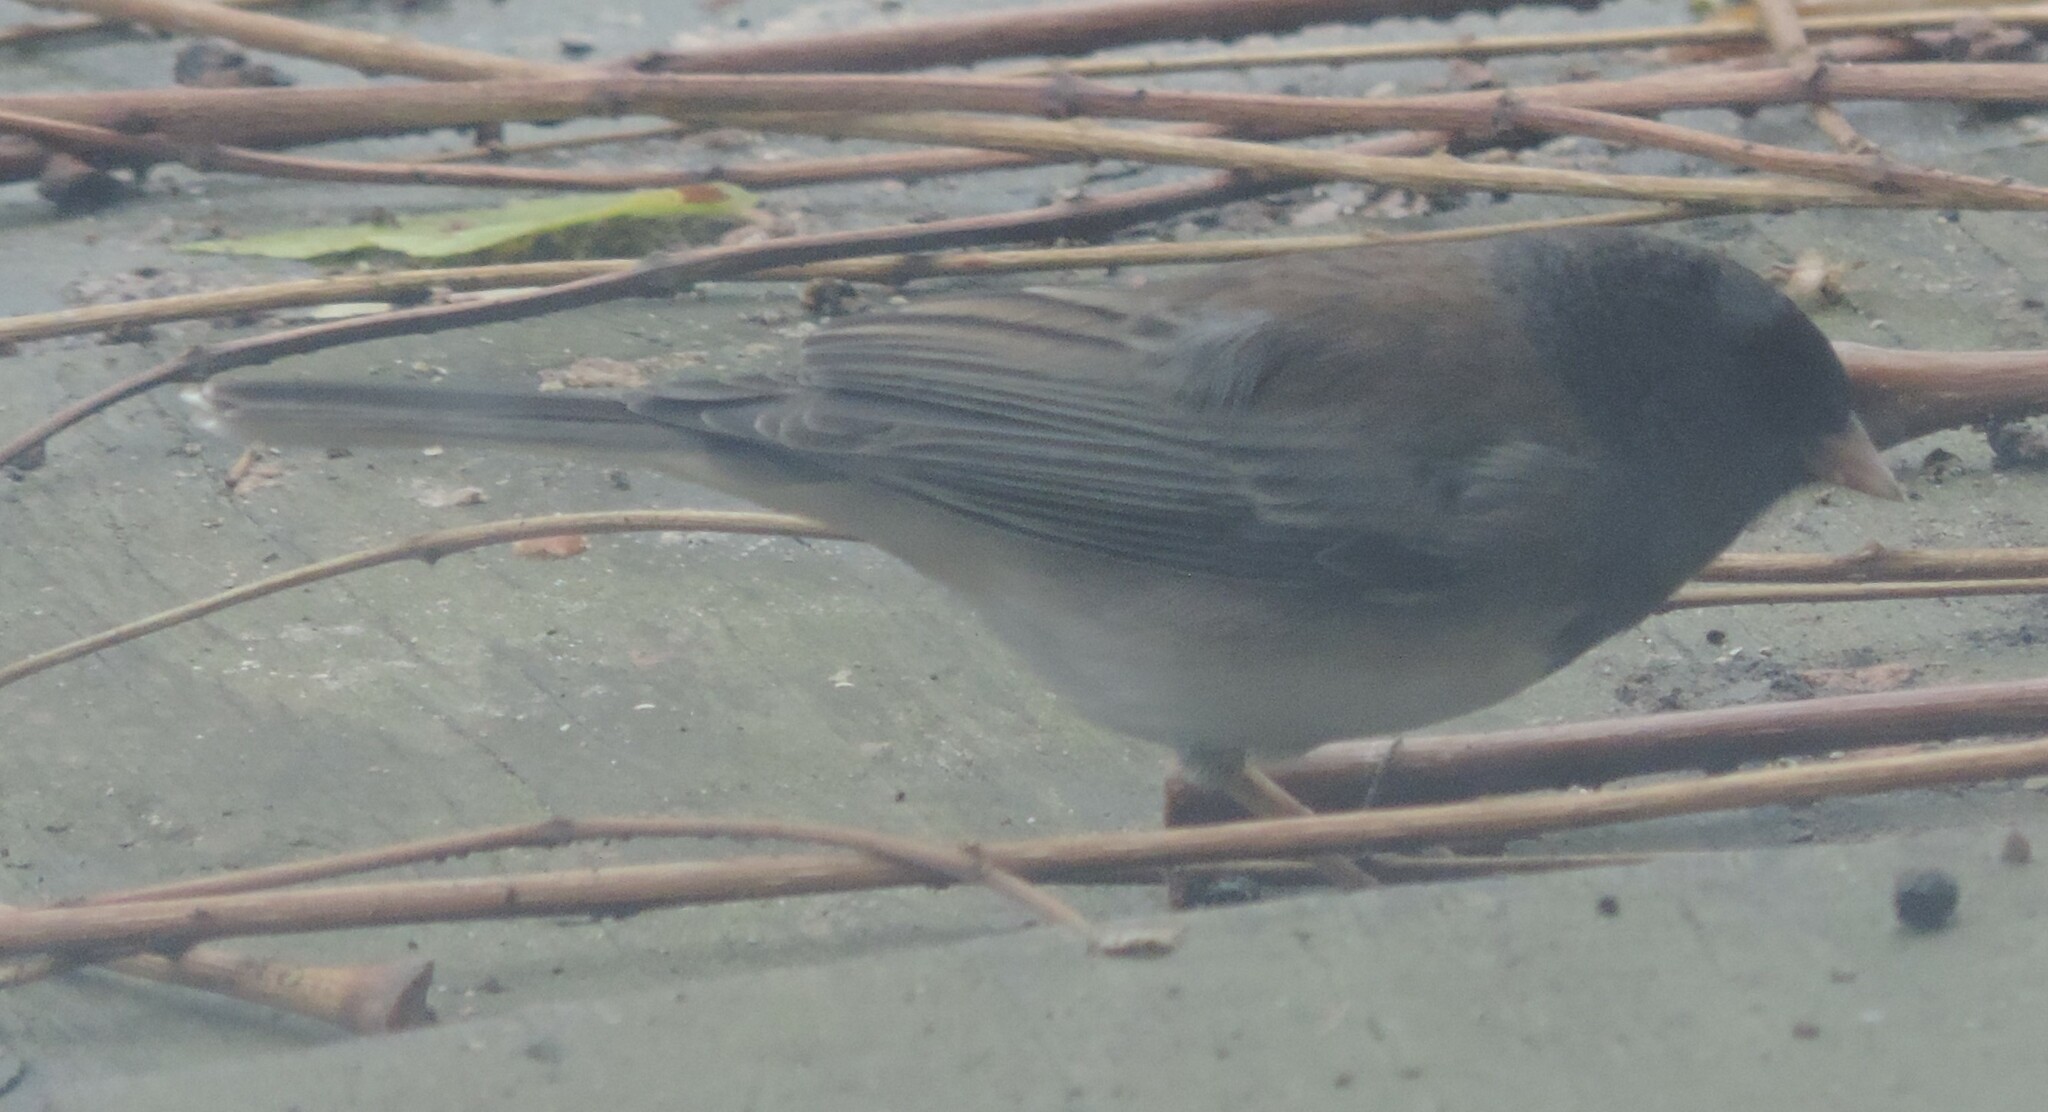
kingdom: Animalia
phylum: Chordata
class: Aves
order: Passeriformes
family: Passerellidae
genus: Junco
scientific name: Junco hyemalis
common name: Dark-eyed junco
